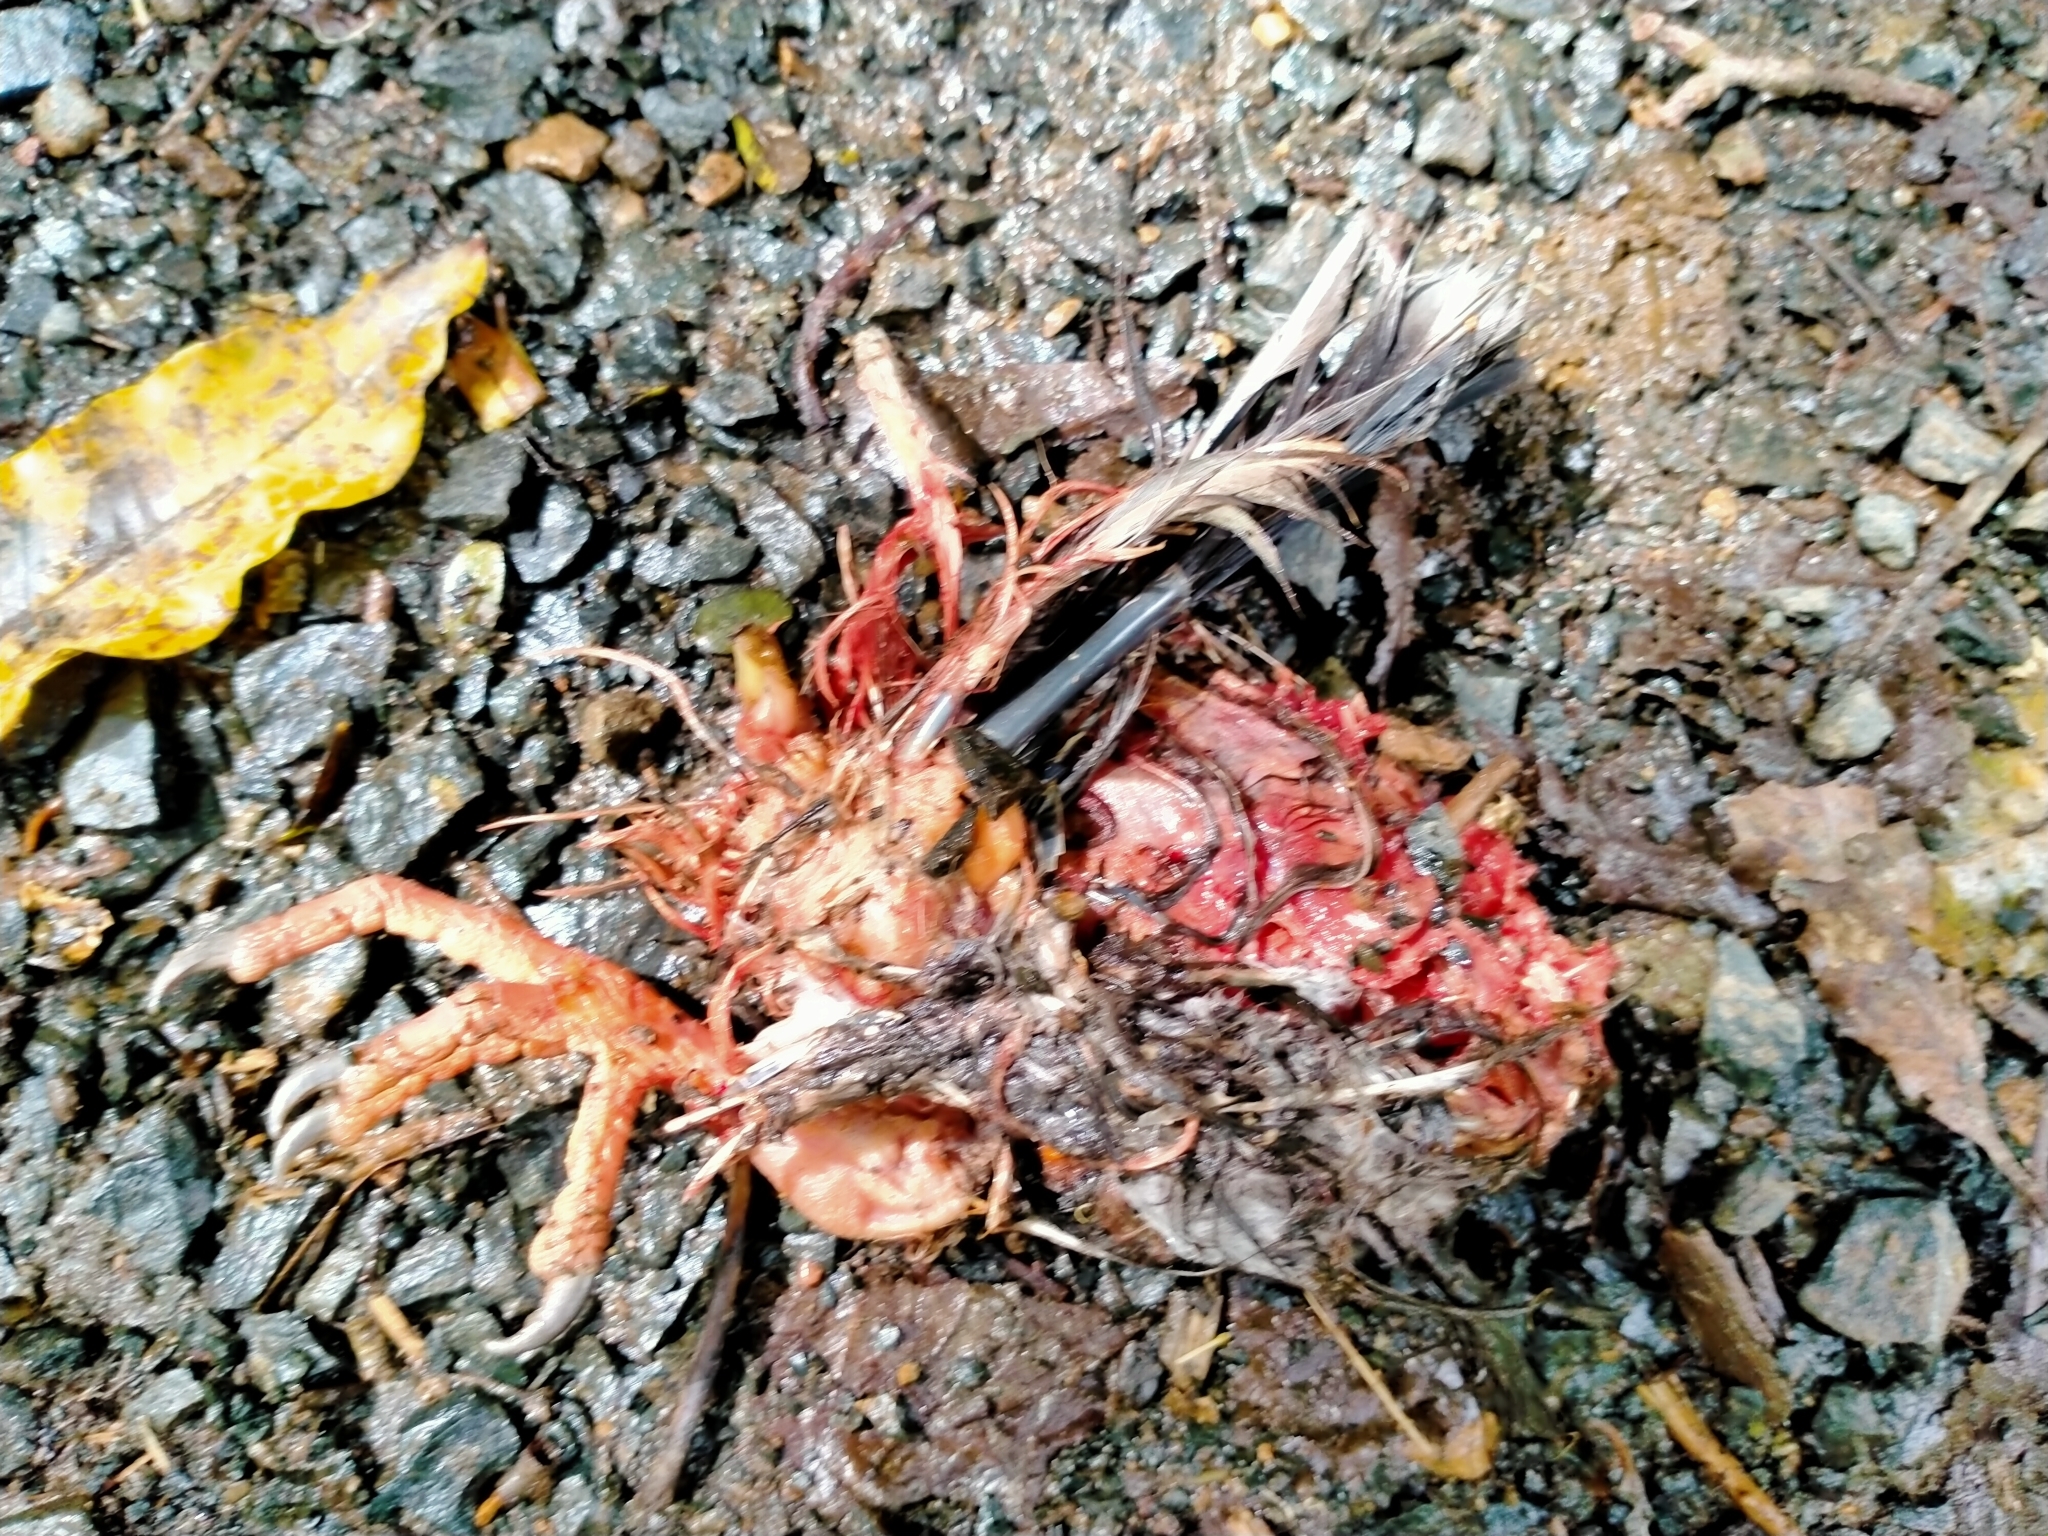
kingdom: Animalia
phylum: Chordata
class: Aves
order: Columbiformes
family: Columbidae
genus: Hemiphaga
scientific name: Hemiphaga novaeseelandiae
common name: New zealand pigeon
